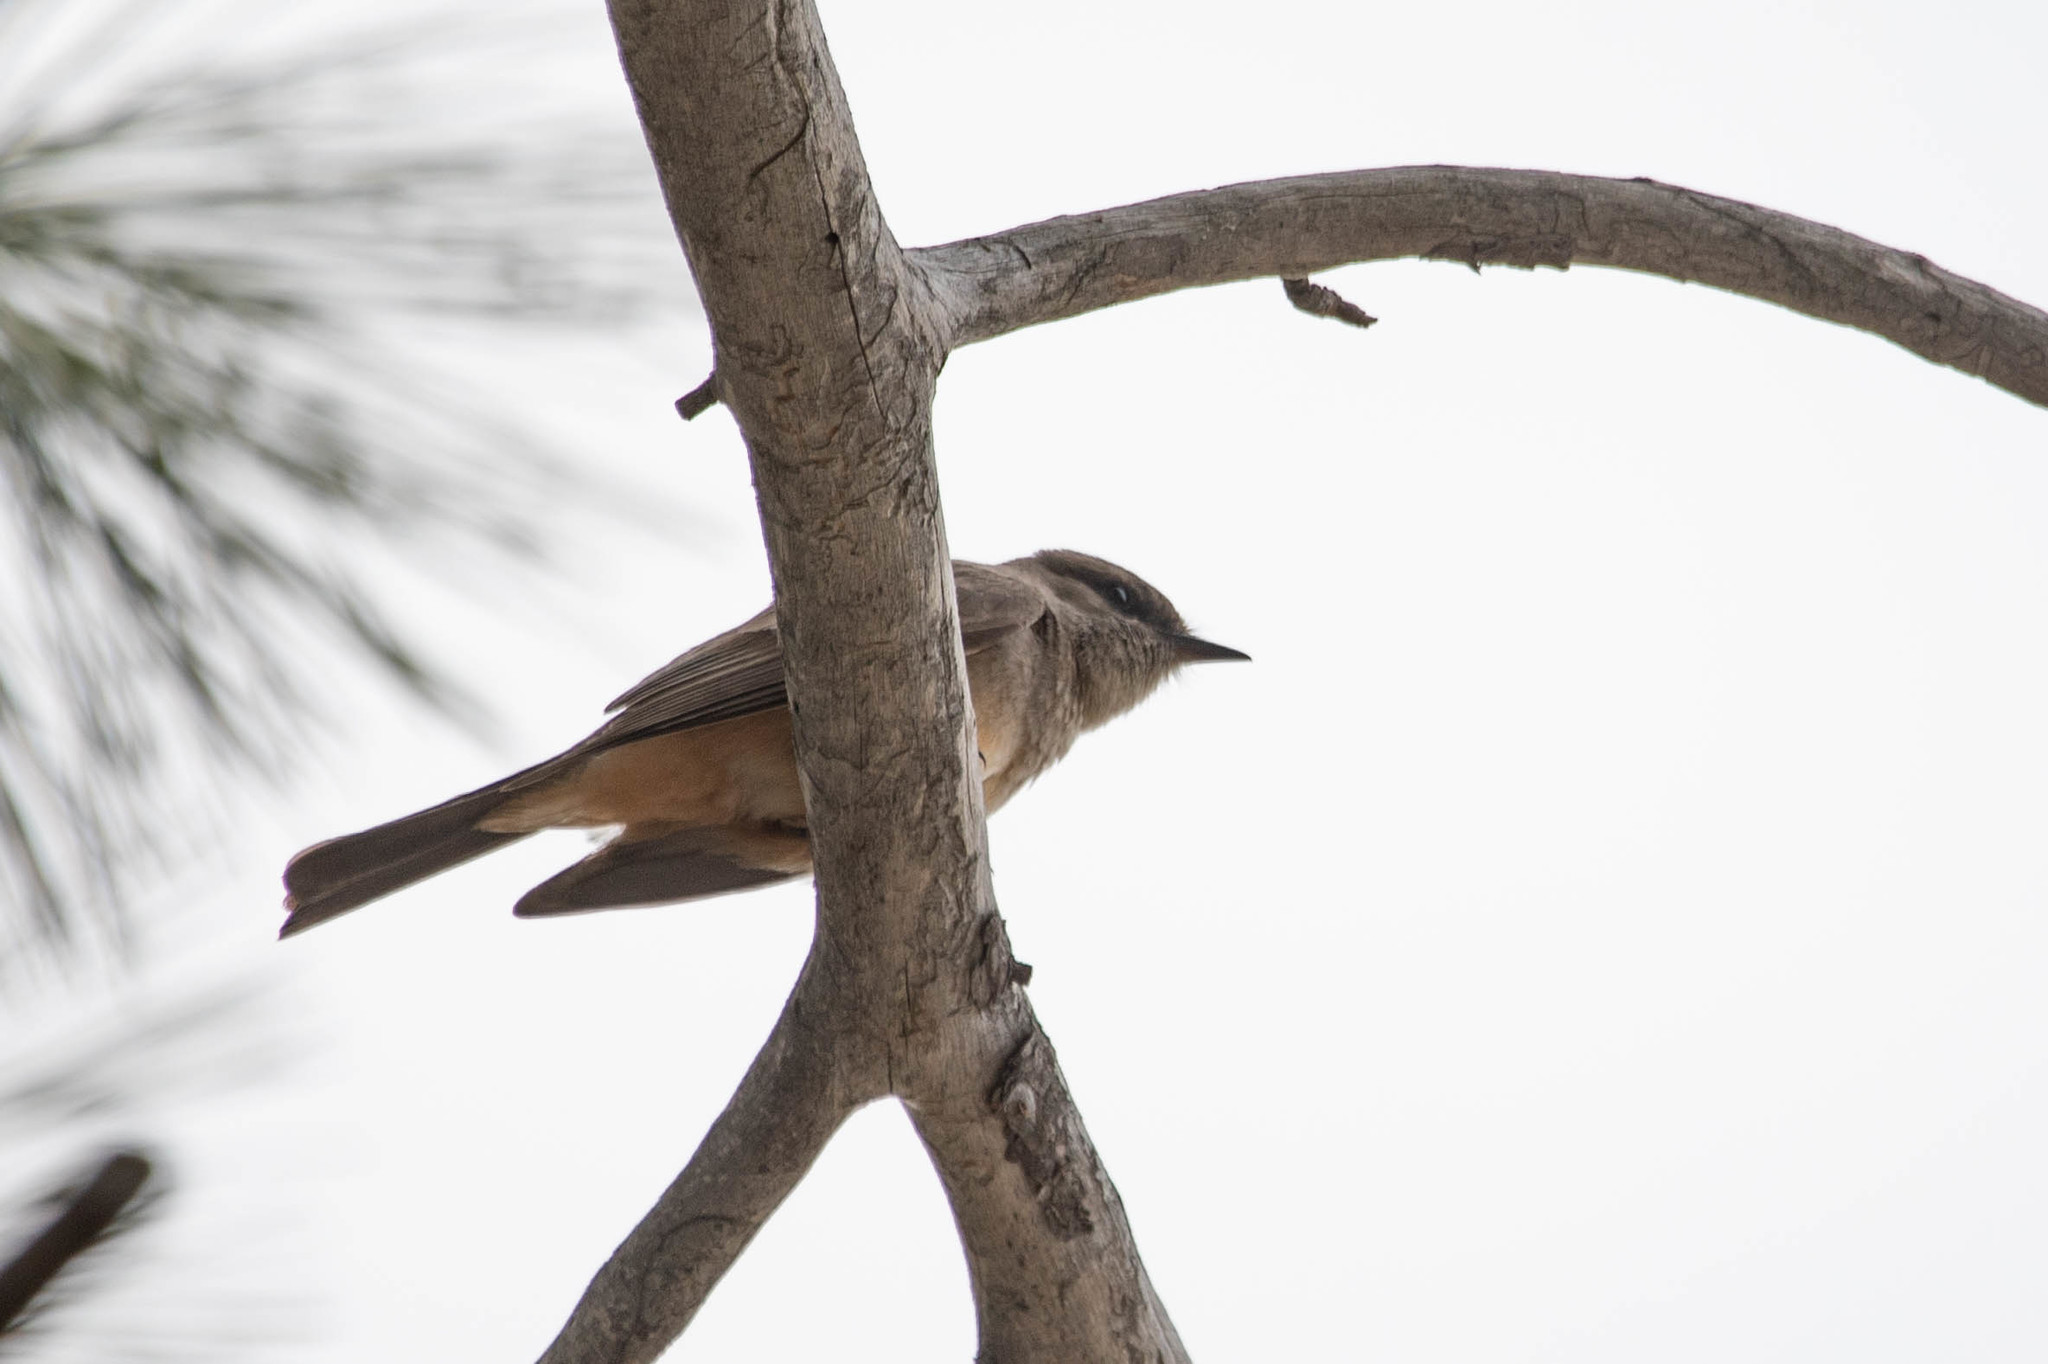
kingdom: Animalia
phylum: Chordata
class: Aves
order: Passeriformes
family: Tyrannidae
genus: Sayornis
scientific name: Sayornis saya
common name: Say's phoebe
